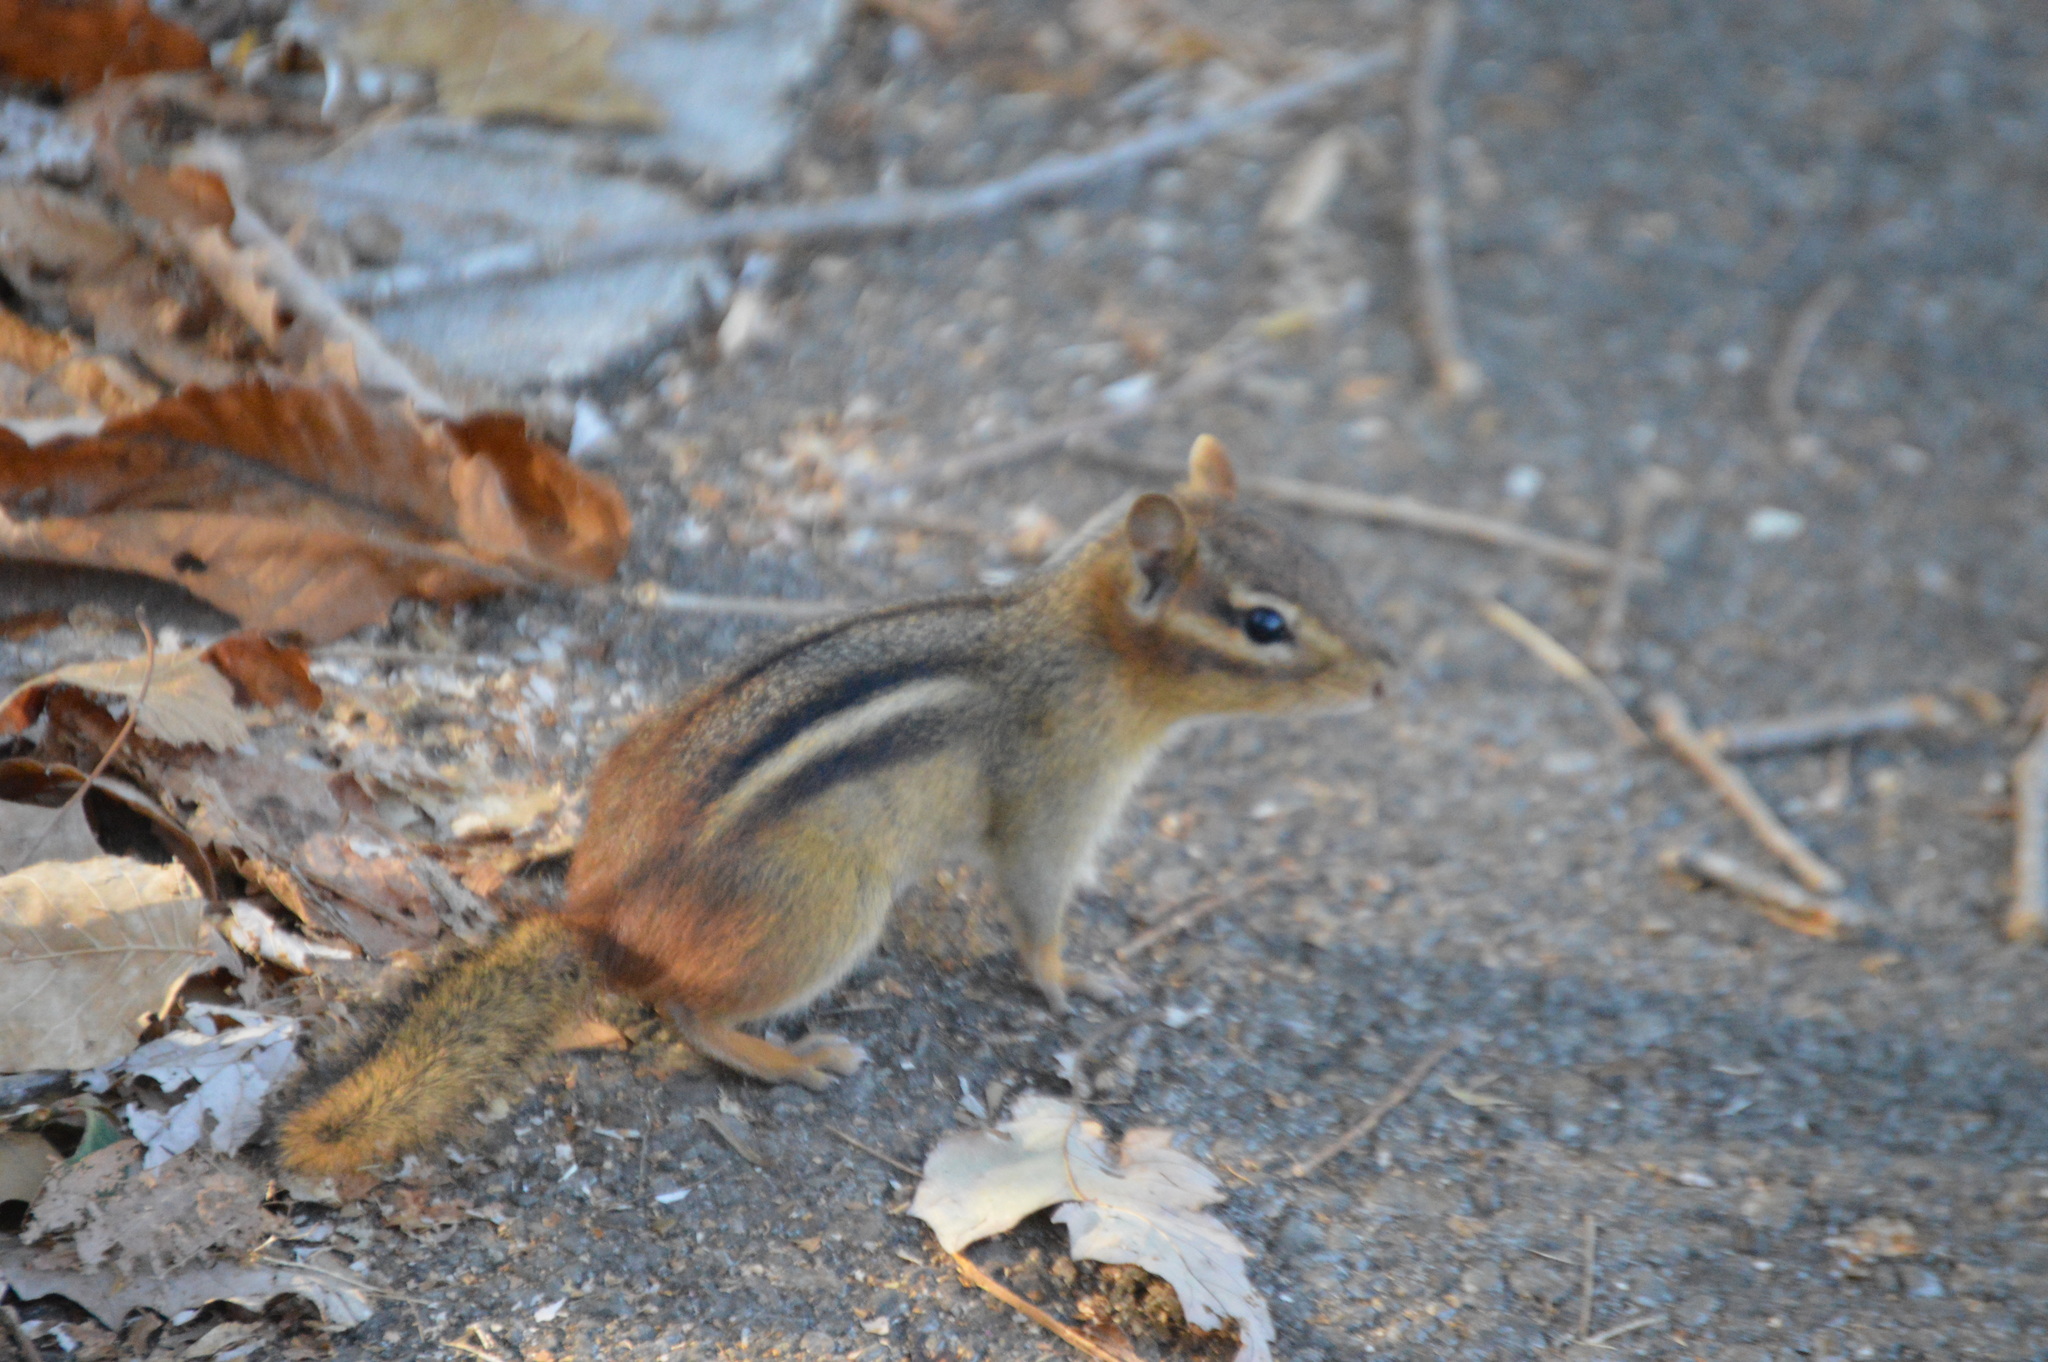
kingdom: Animalia
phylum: Chordata
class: Mammalia
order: Rodentia
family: Sciuridae
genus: Tamias
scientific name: Tamias striatus
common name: Eastern chipmunk
